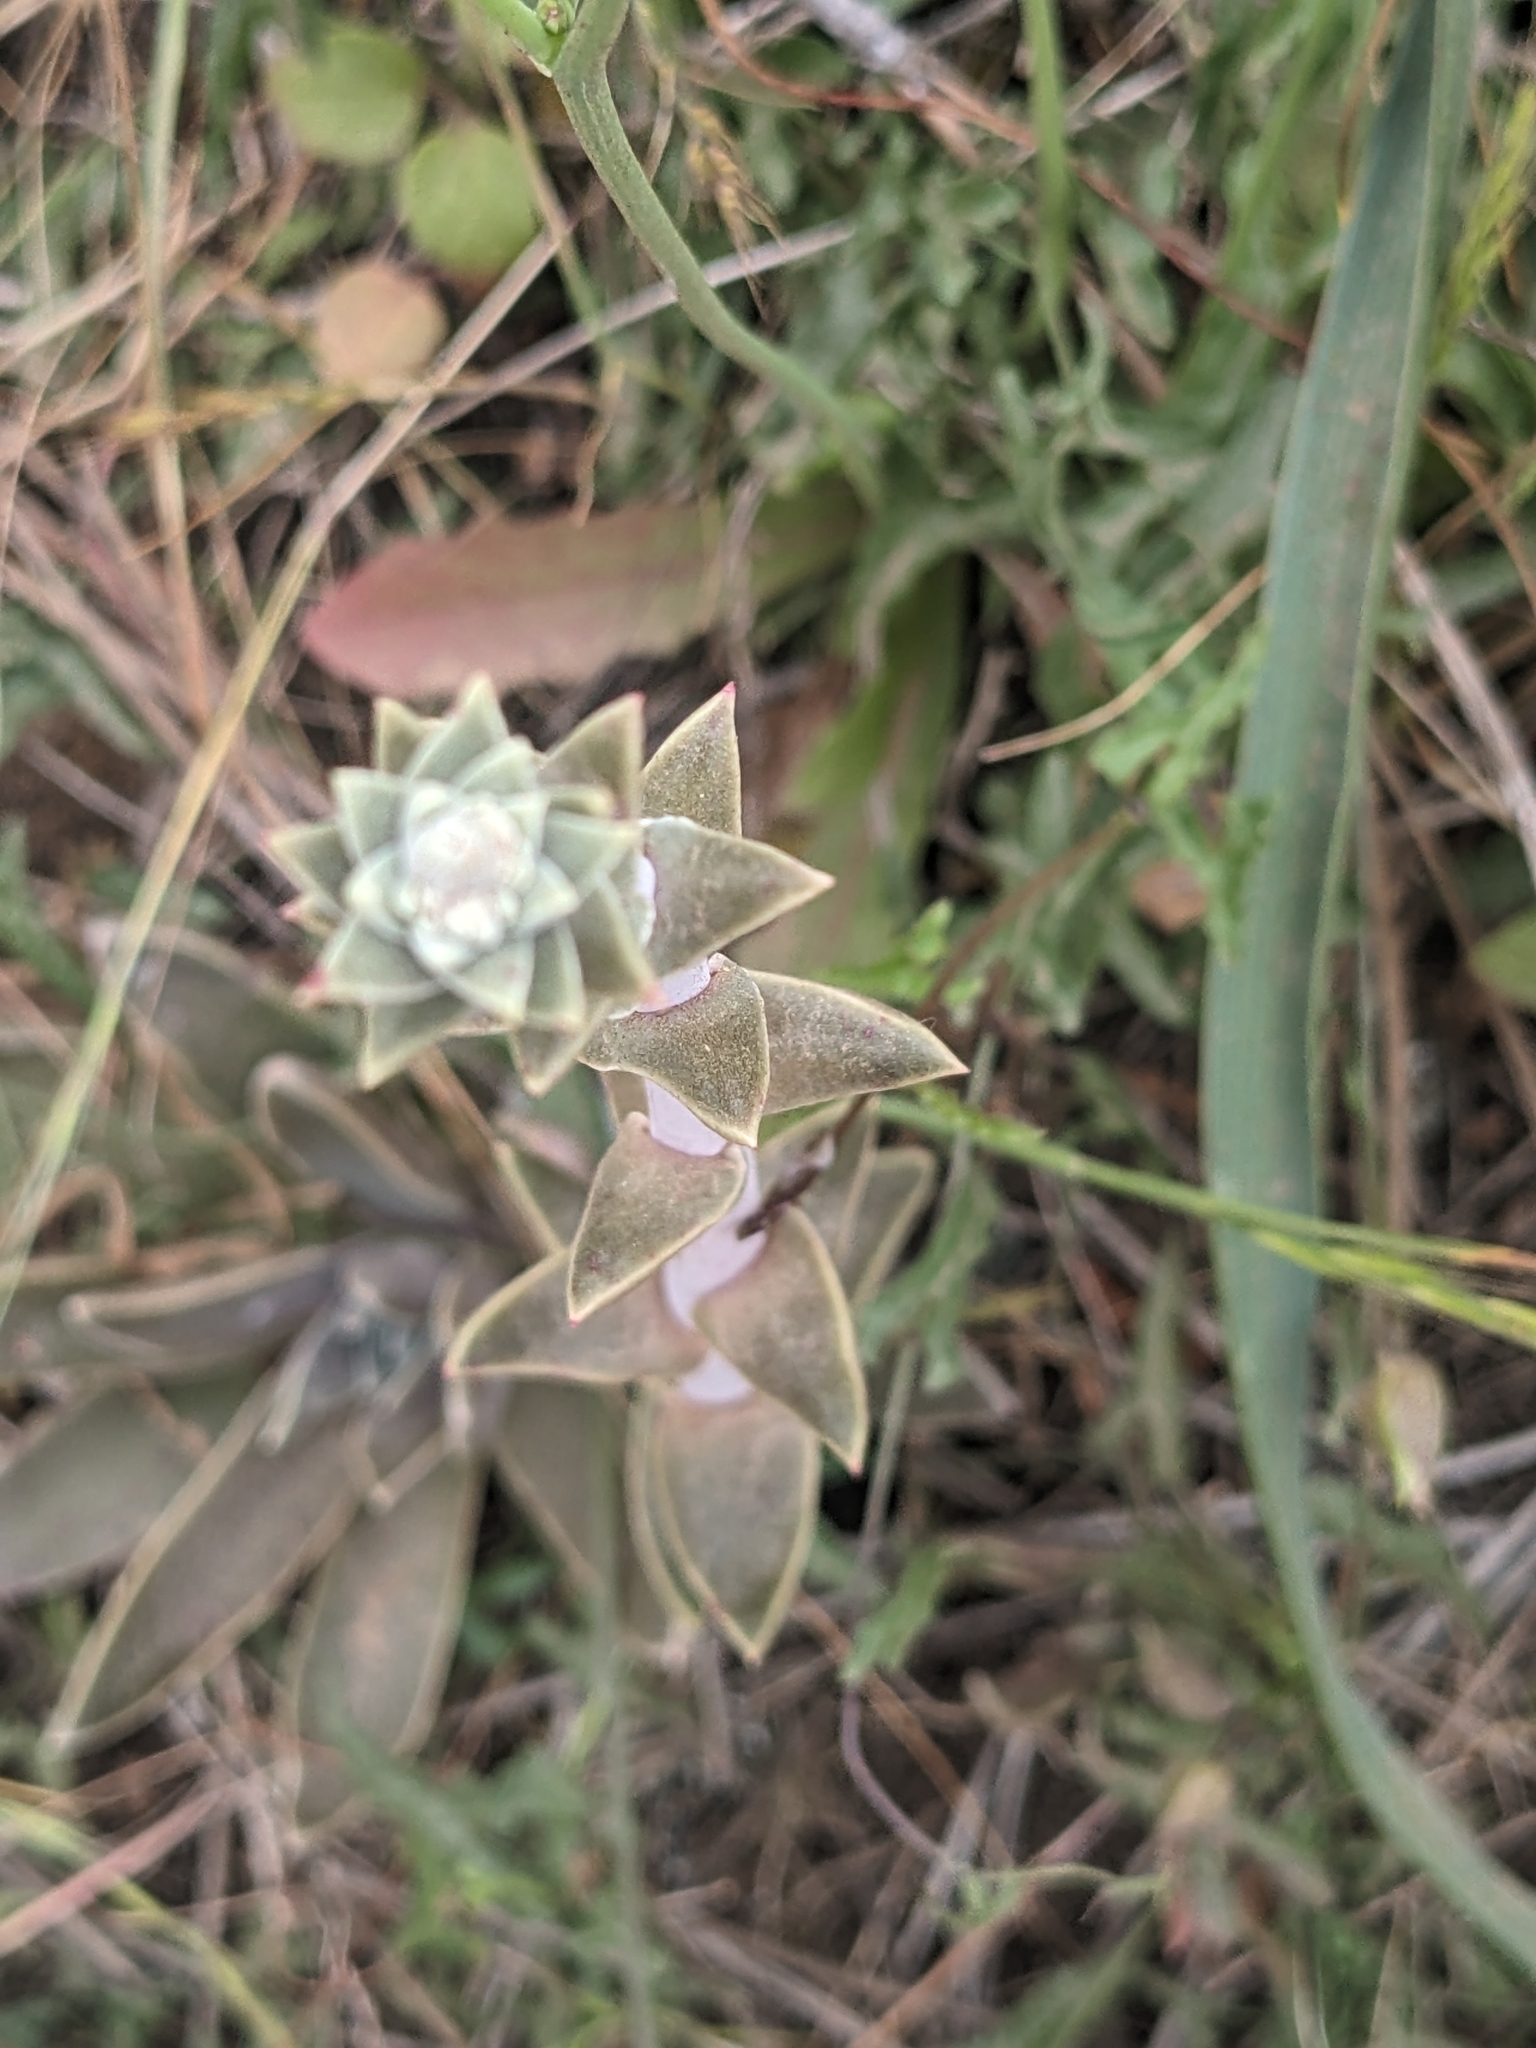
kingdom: Plantae
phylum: Tracheophyta
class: Magnoliopsida
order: Saxifragales
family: Crassulaceae
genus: Dudleya
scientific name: Dudleya lanceolata
